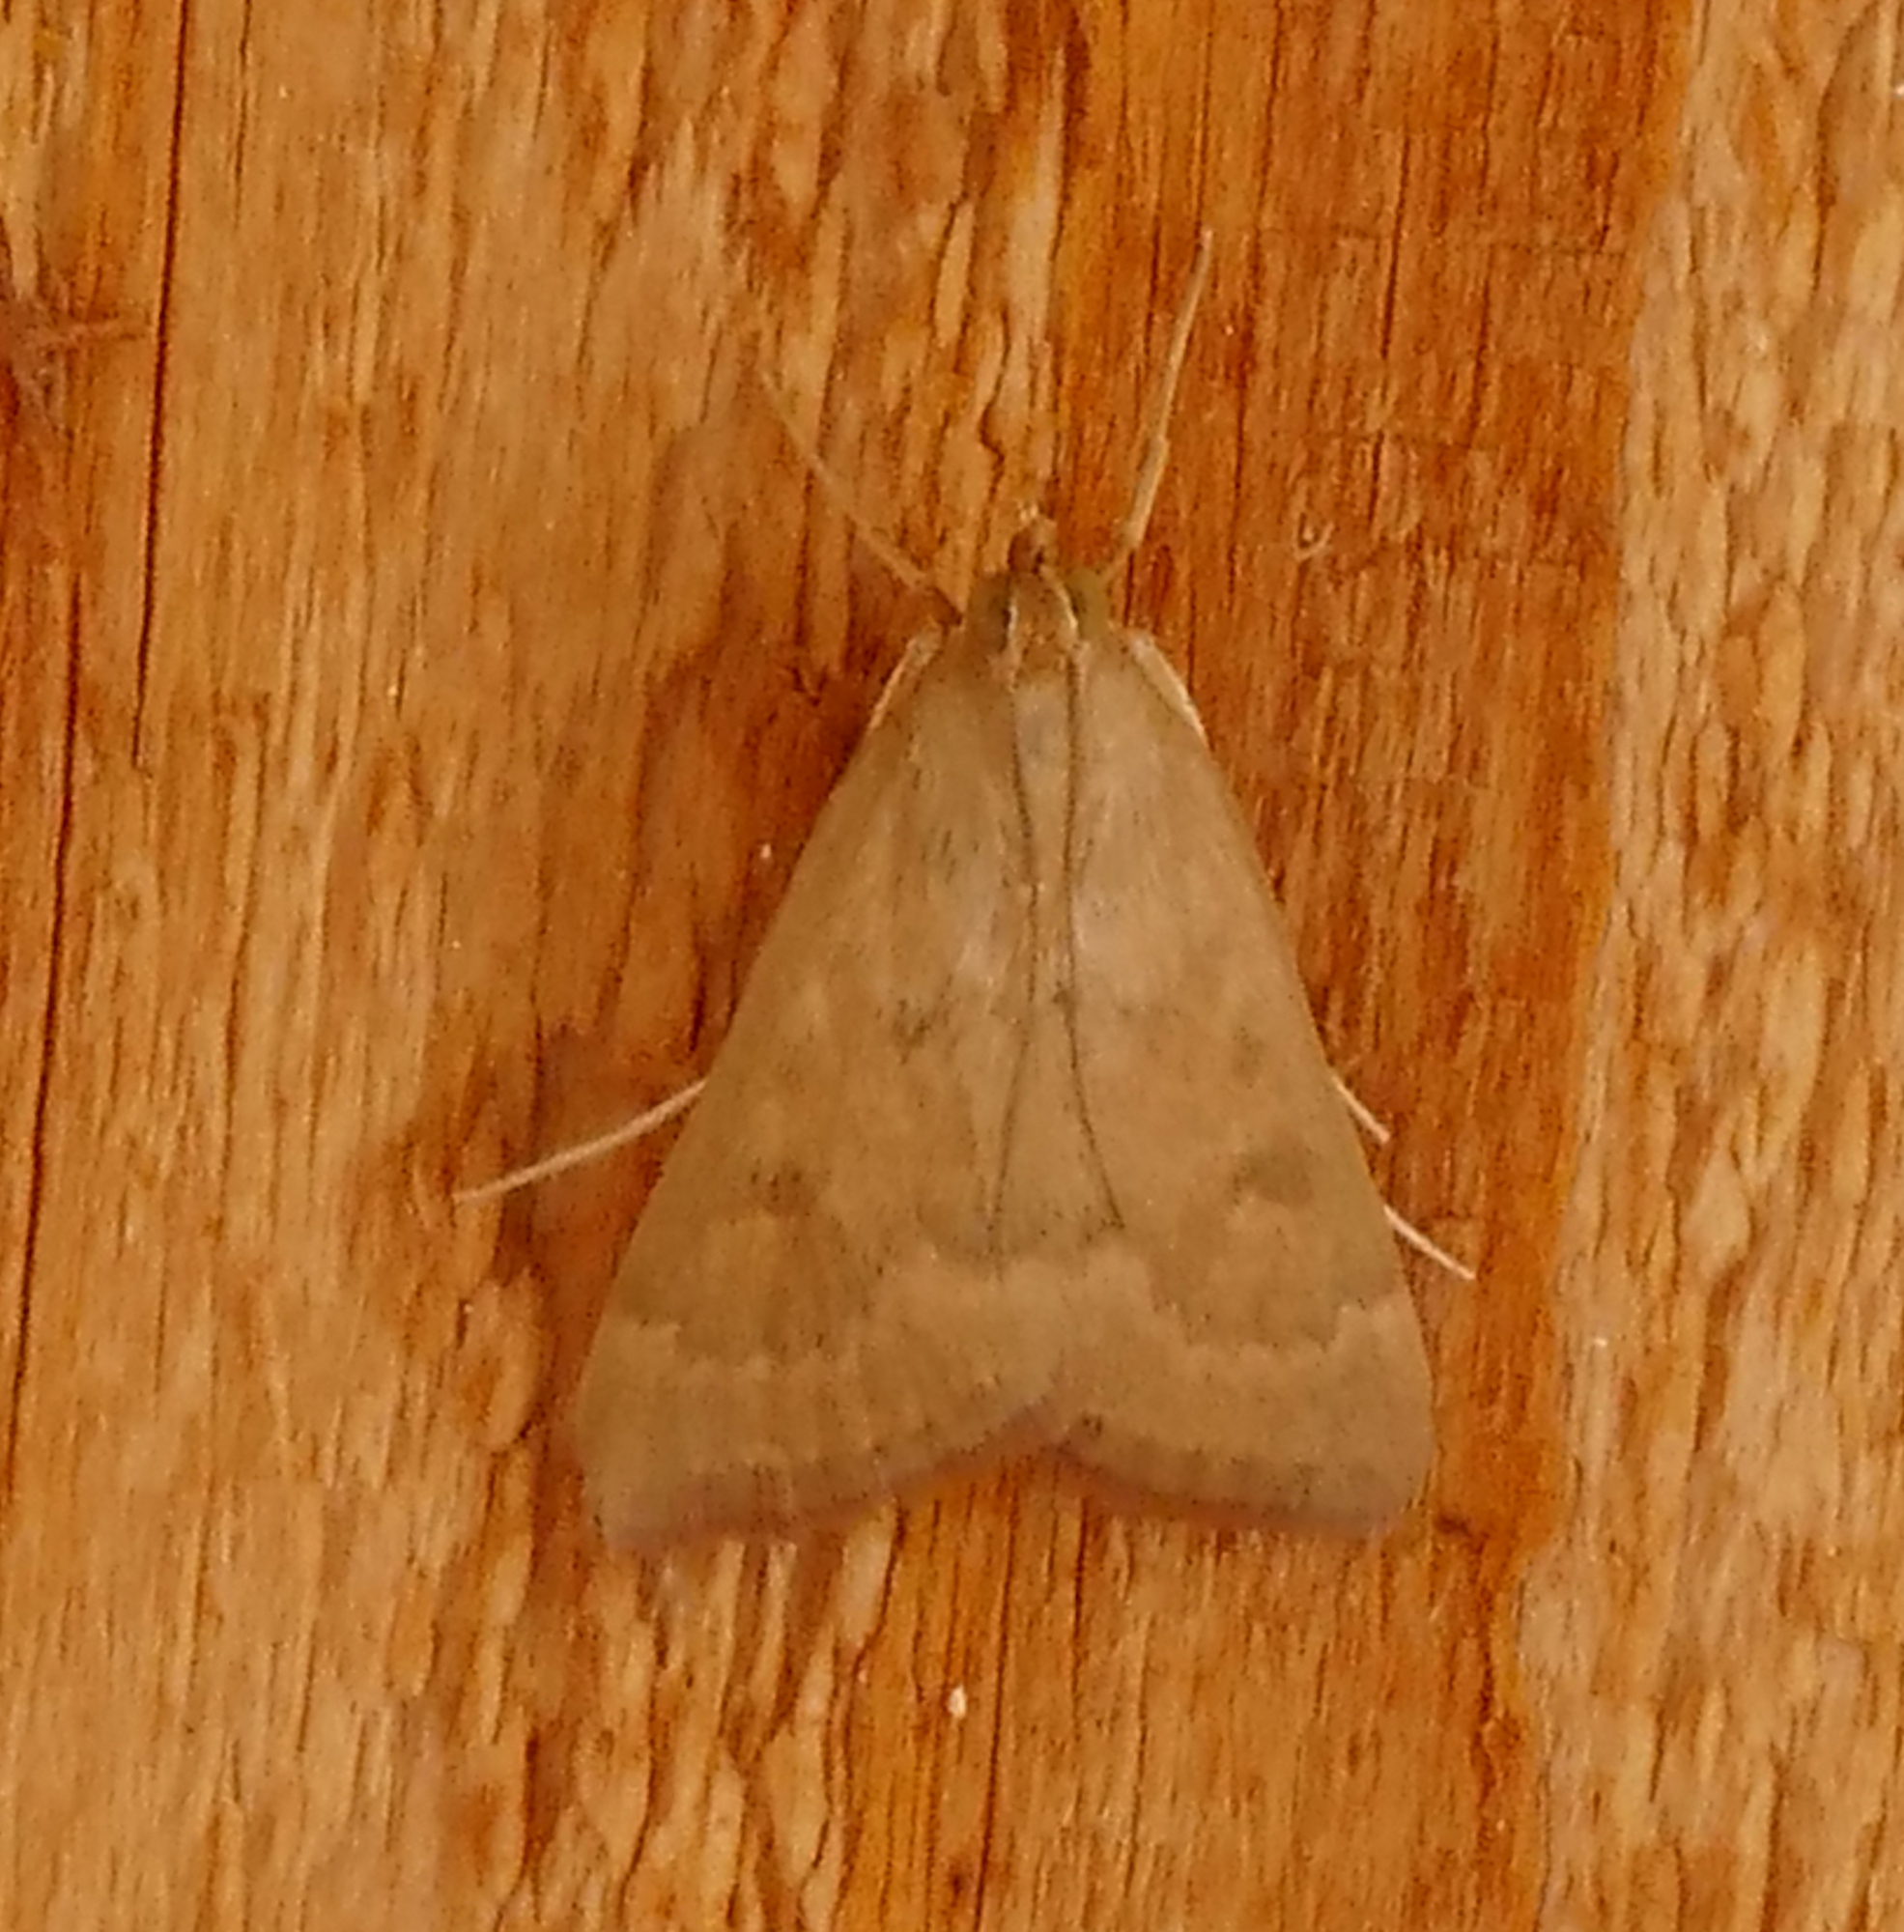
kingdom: Animalia
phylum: Arthropoda
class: Insecta
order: Lepidoptera
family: Crambidae
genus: Achyra
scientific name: Achyra rantalis
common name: Garden webworm
